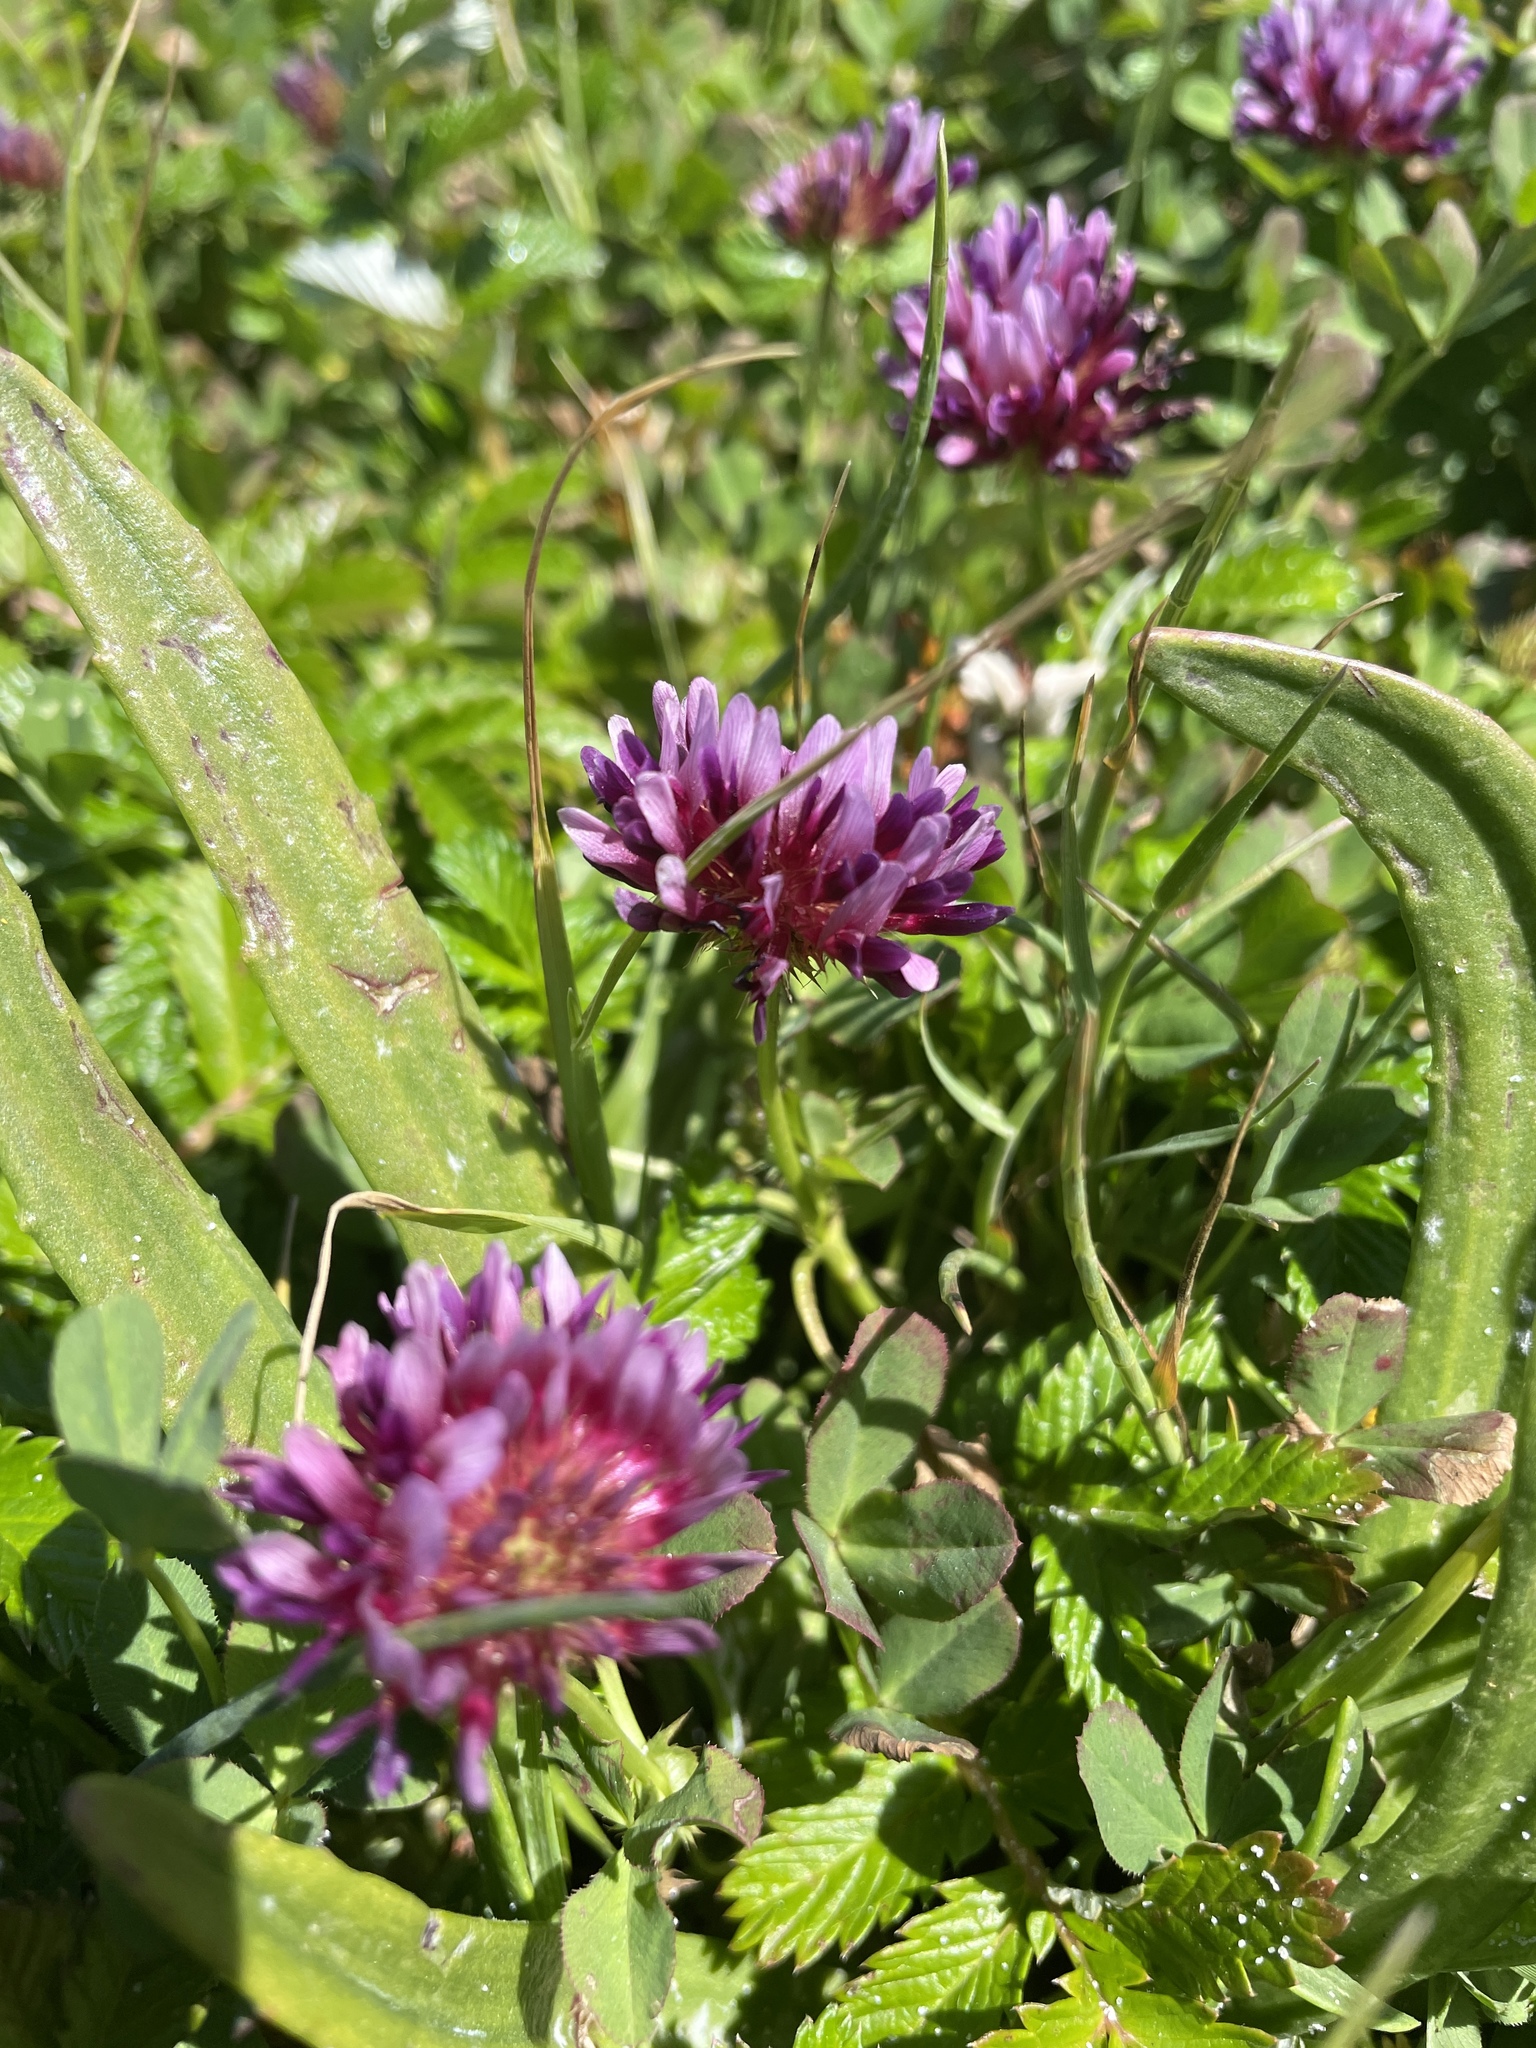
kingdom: Plantae
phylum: Tracheophyta
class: Magnoliopsida
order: Fabales
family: Fabaceae
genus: Trifolium
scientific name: Trifolium wormskioldii
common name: Springbank clover
